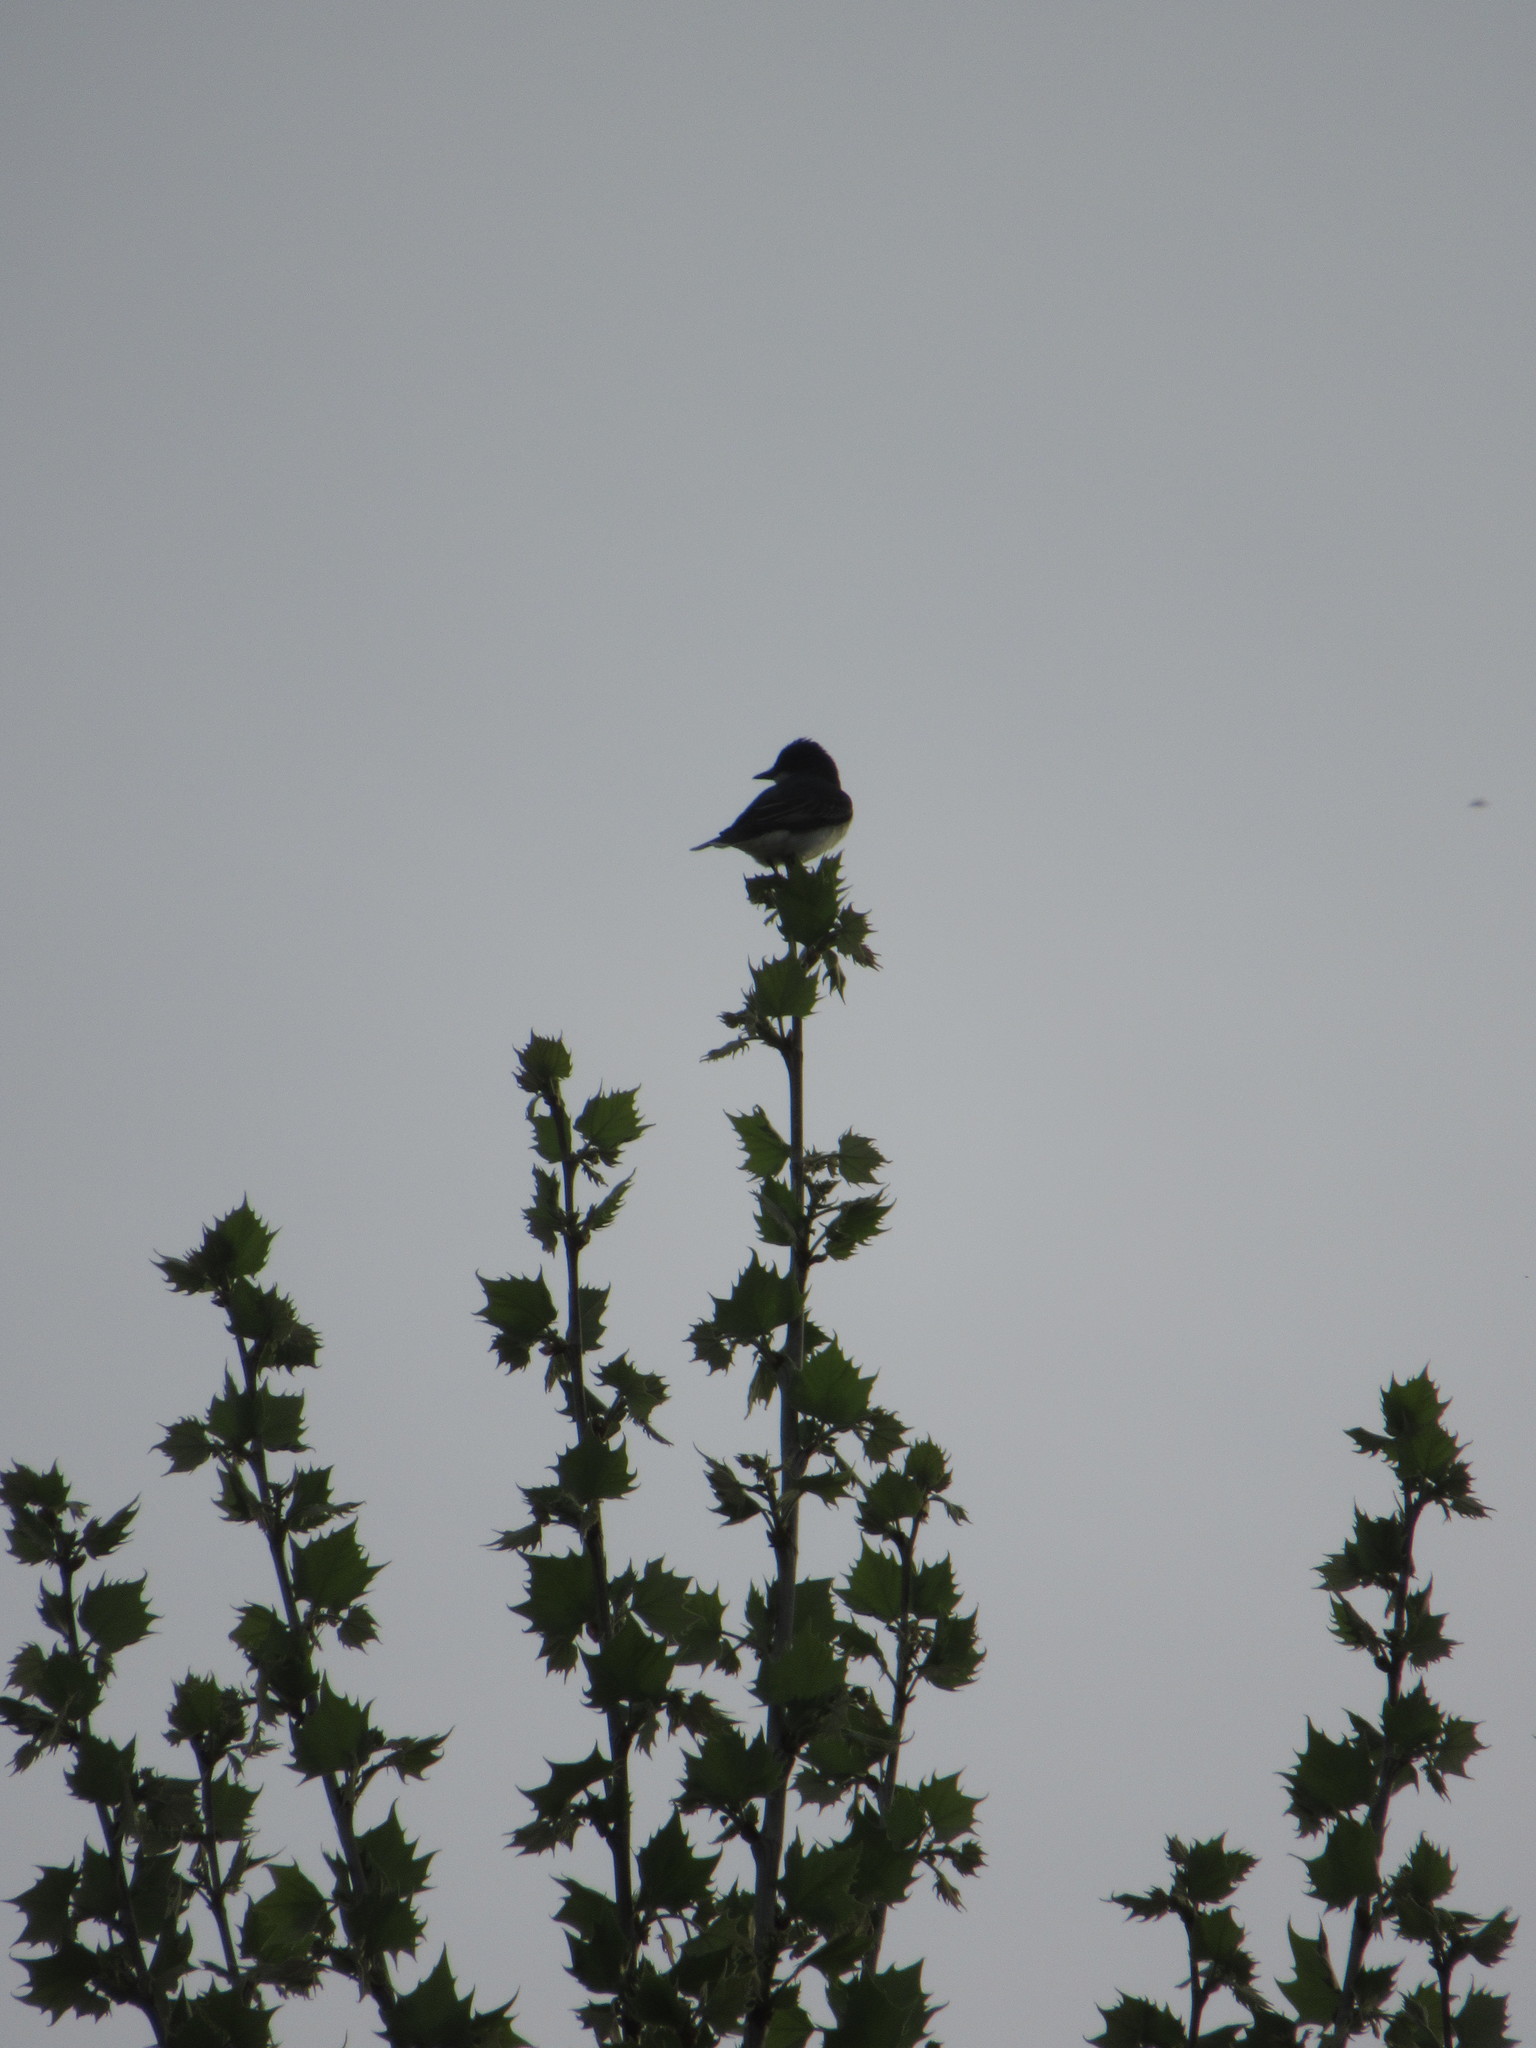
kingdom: Animalia
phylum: Chordata
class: Aves
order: Passeriformes
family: Tyrannidae
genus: Tyrannus
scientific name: Tyrannus tyrannus
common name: Eastern kingbird
